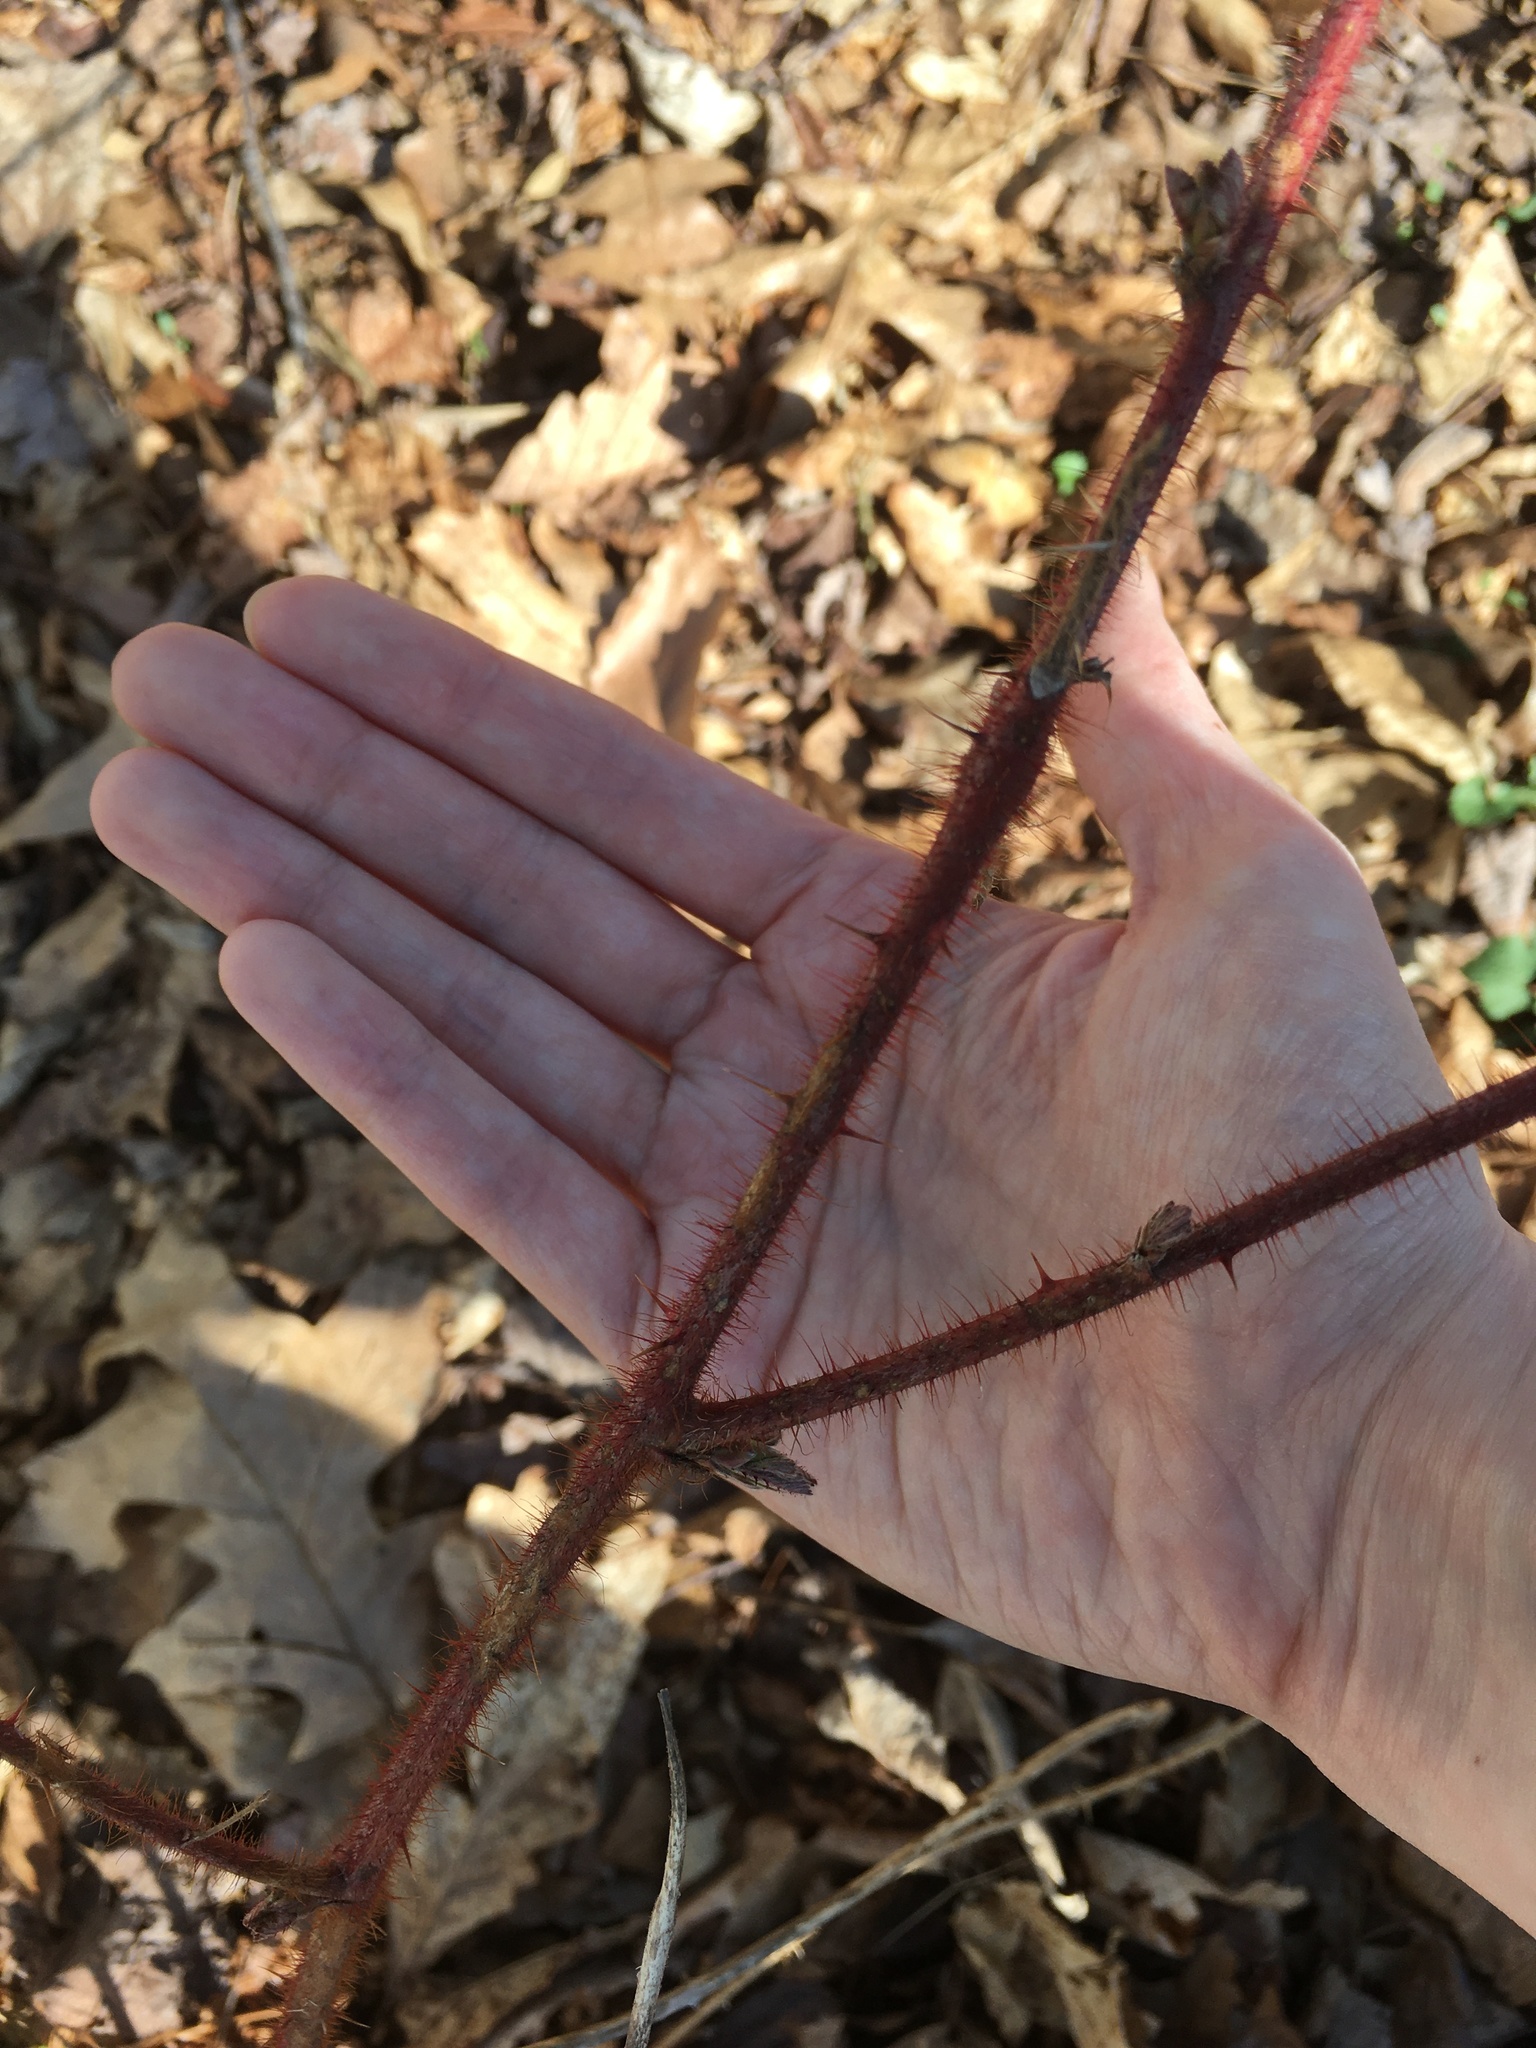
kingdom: Plantae
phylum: Tracheophyta
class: Magnoliopsida
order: Rosales
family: Rosaceae
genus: Rubus
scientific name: Rubus phoenicolasius
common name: Japanese wineberry
